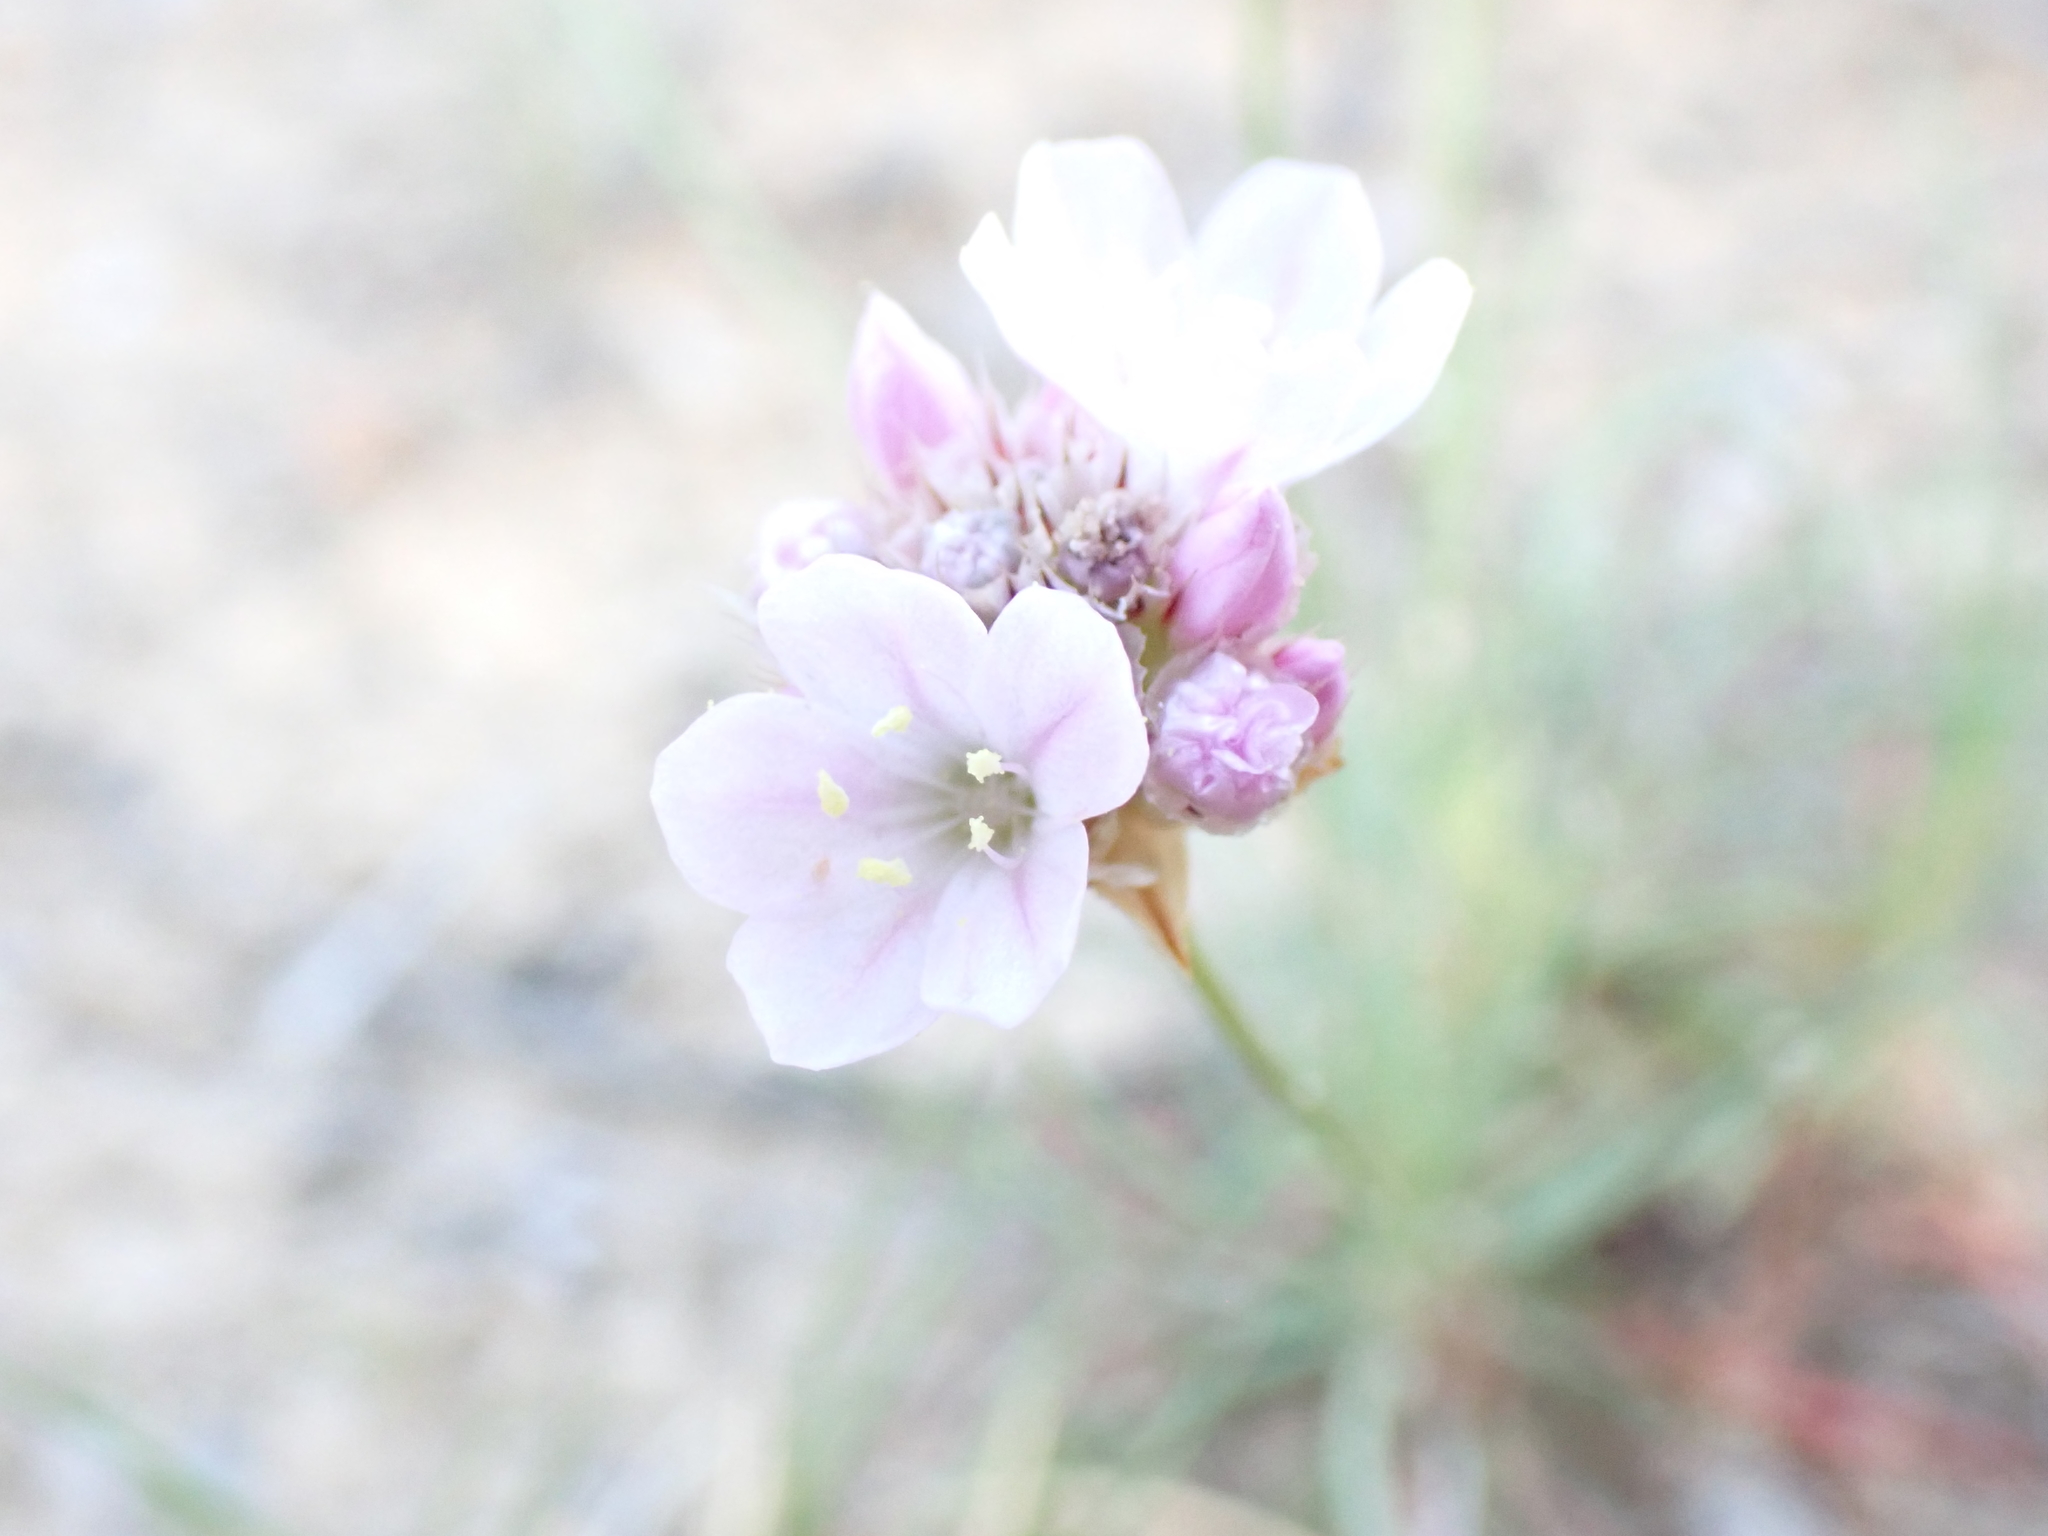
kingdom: Plantae
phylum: Tracheophyta
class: Magnoliopsida
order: Caryophyllales
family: Plumbaginaceae
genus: Armeria
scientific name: Armeria girardii
